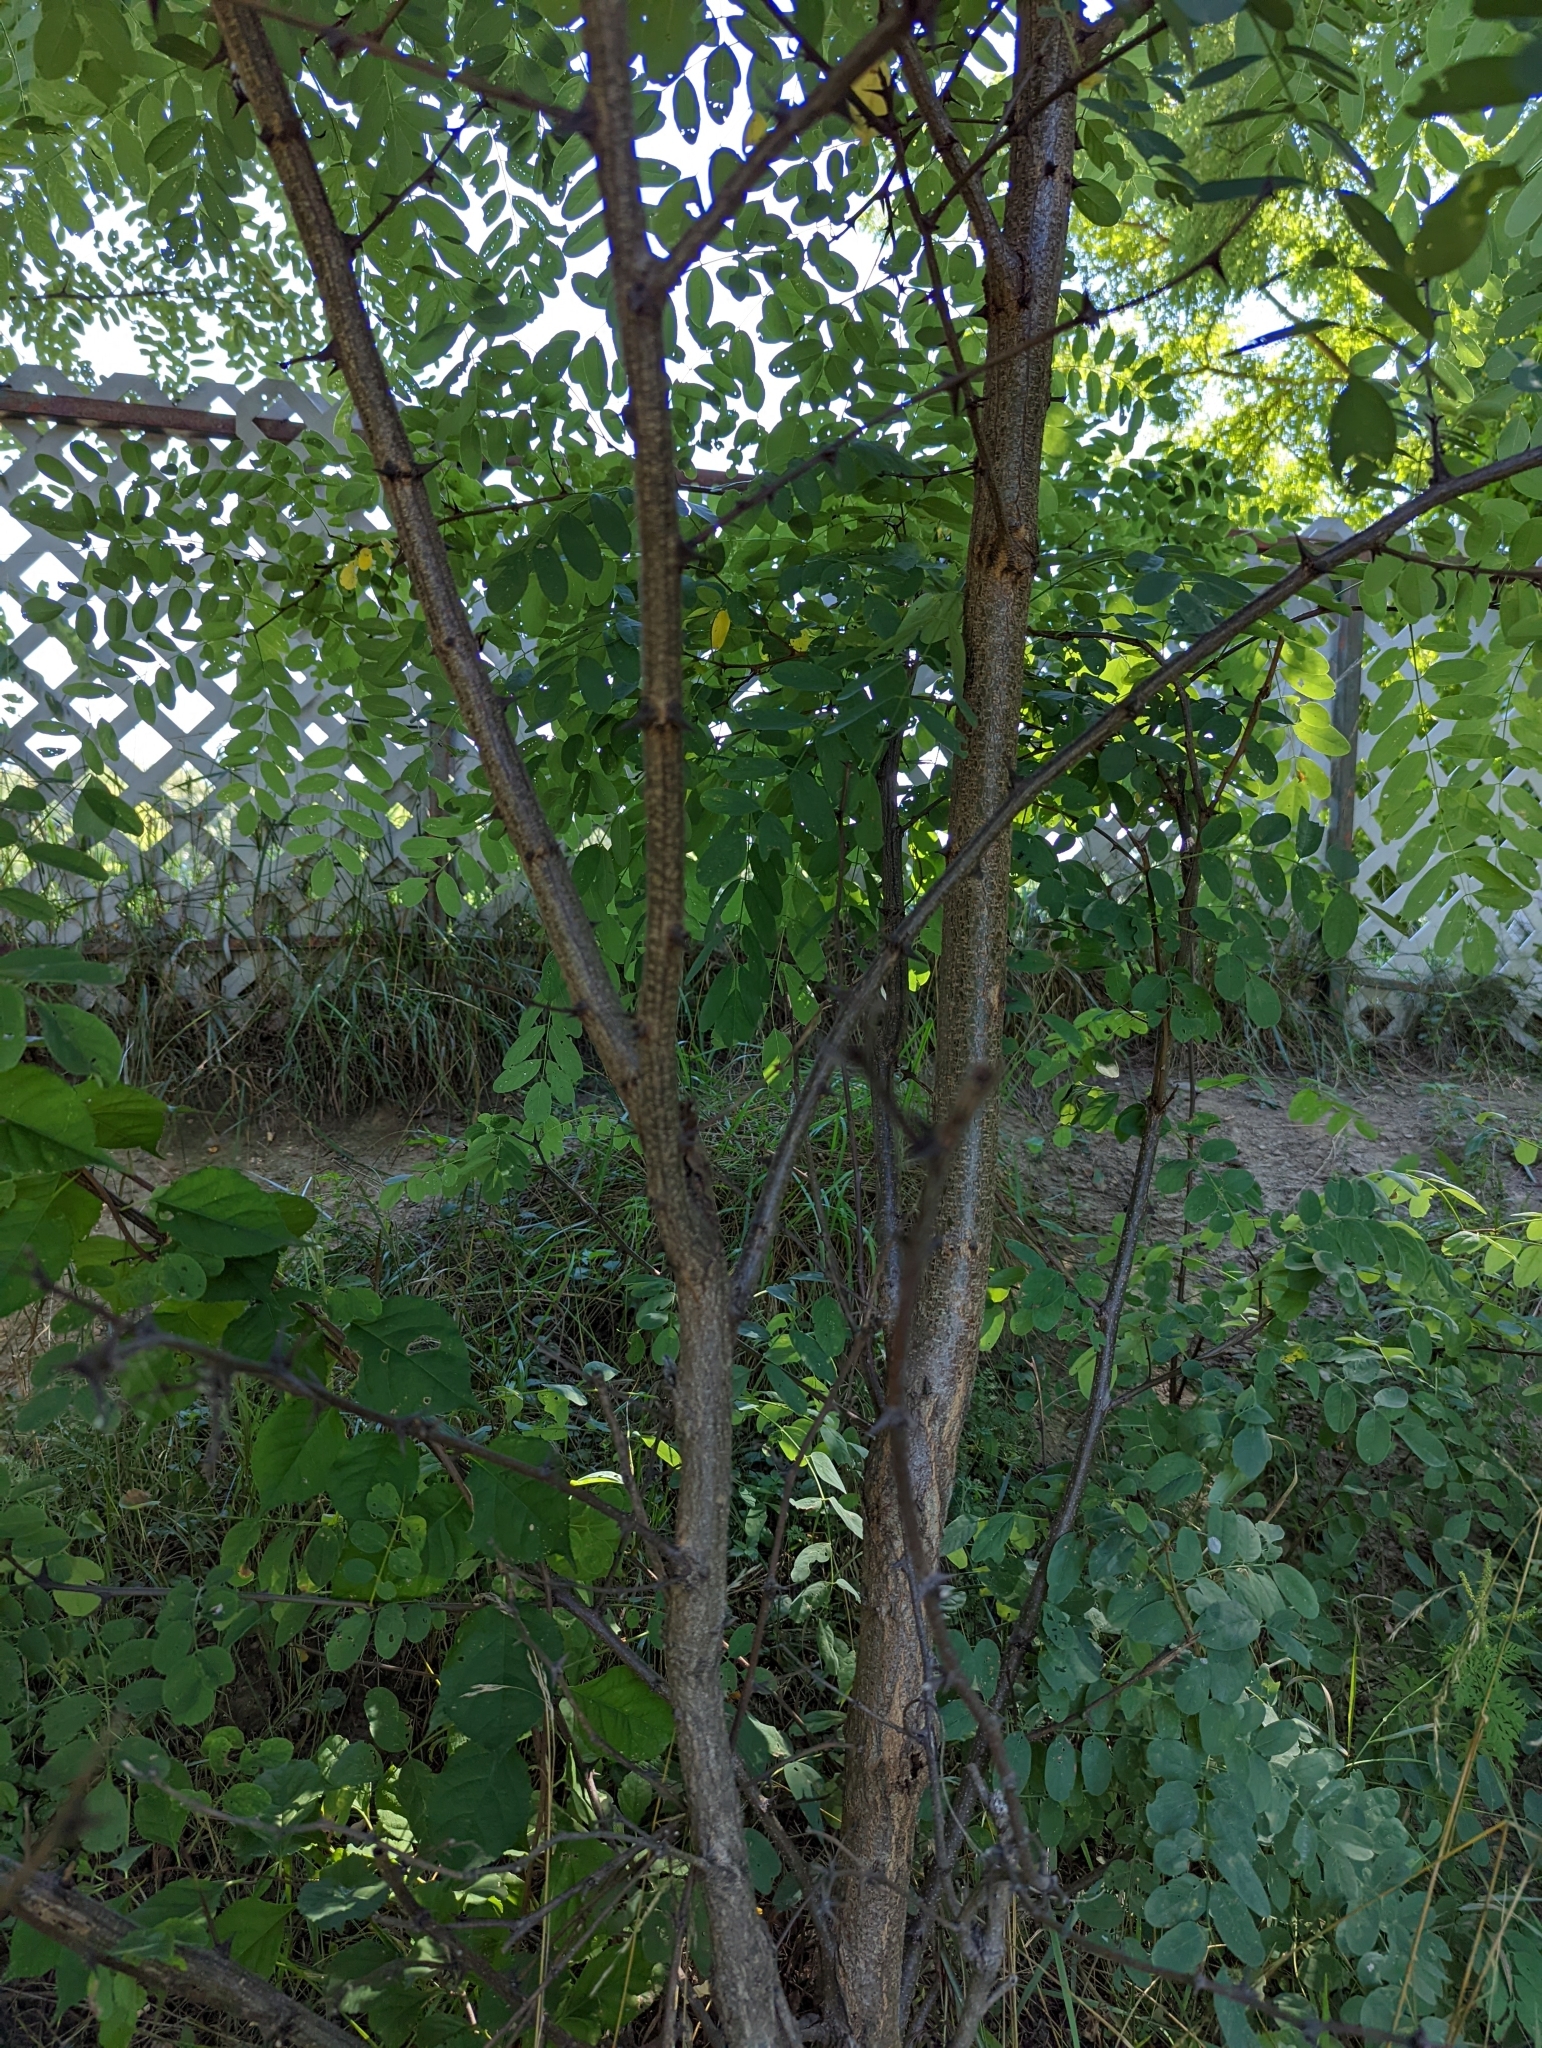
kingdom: Plantae
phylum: Tracheophyta
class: Magnoliopsida
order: Fabales
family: Fabaceae
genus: Robinia
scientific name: Robinia pseudoacacia
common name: Black locust
